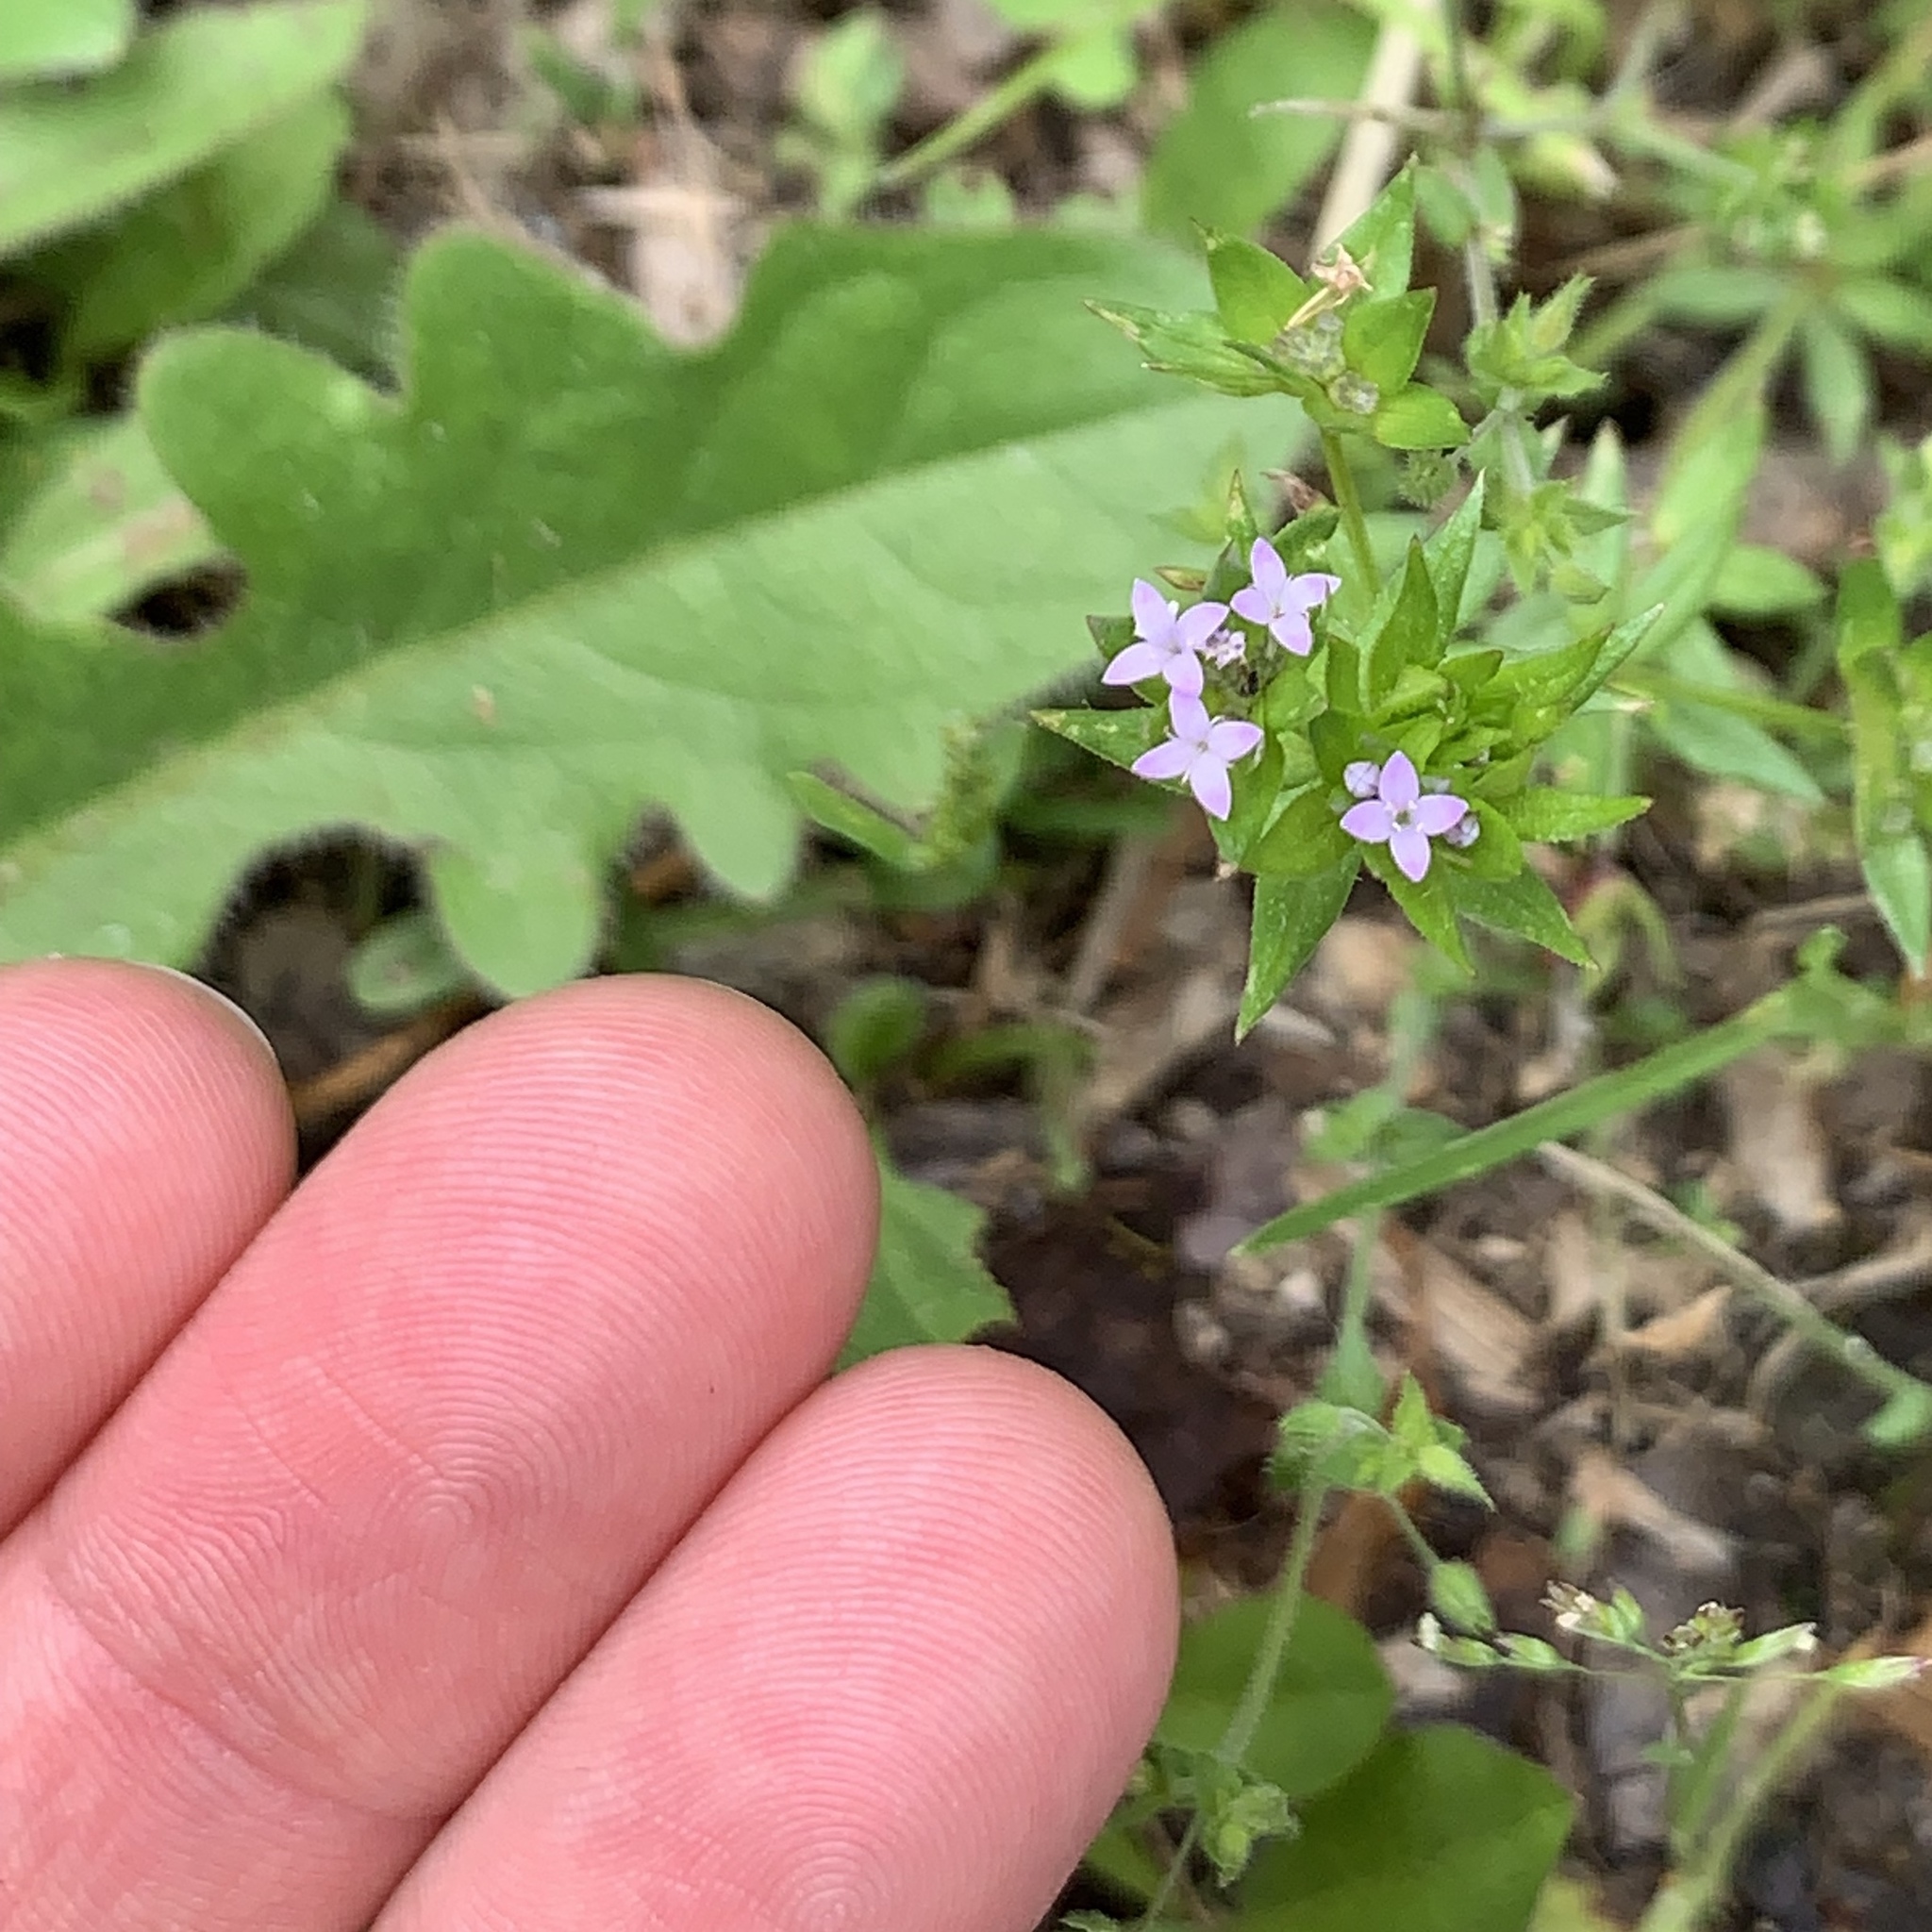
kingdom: Plantae
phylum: Tracheophyta
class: Magnoliopsida
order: Gentianales
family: Rubiaceae
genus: Sherardia
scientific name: Sherardia arvensis
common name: Field madder
